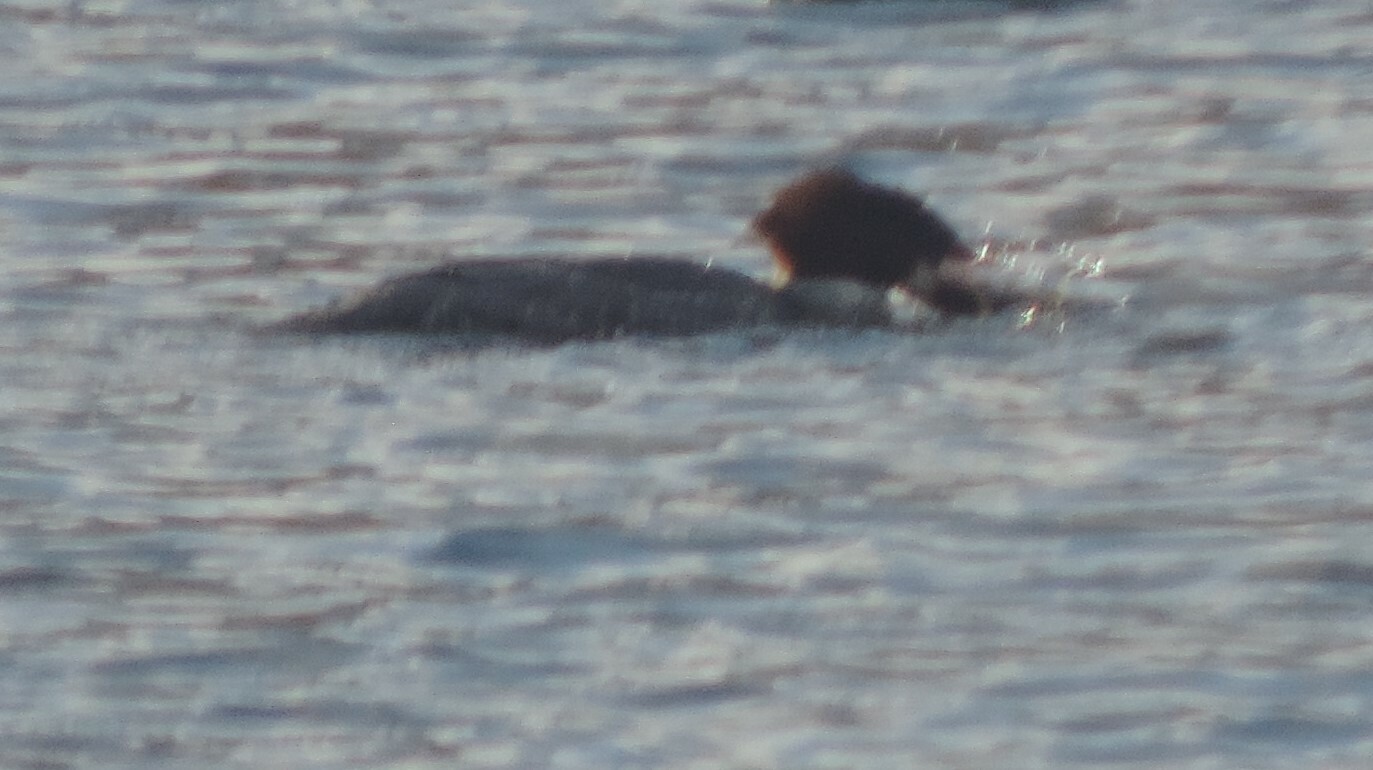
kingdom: Animalia
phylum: Chordata
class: Aves
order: Anseriformes
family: Anatidae
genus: Mergus
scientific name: Mergus merganser
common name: Common merganser
